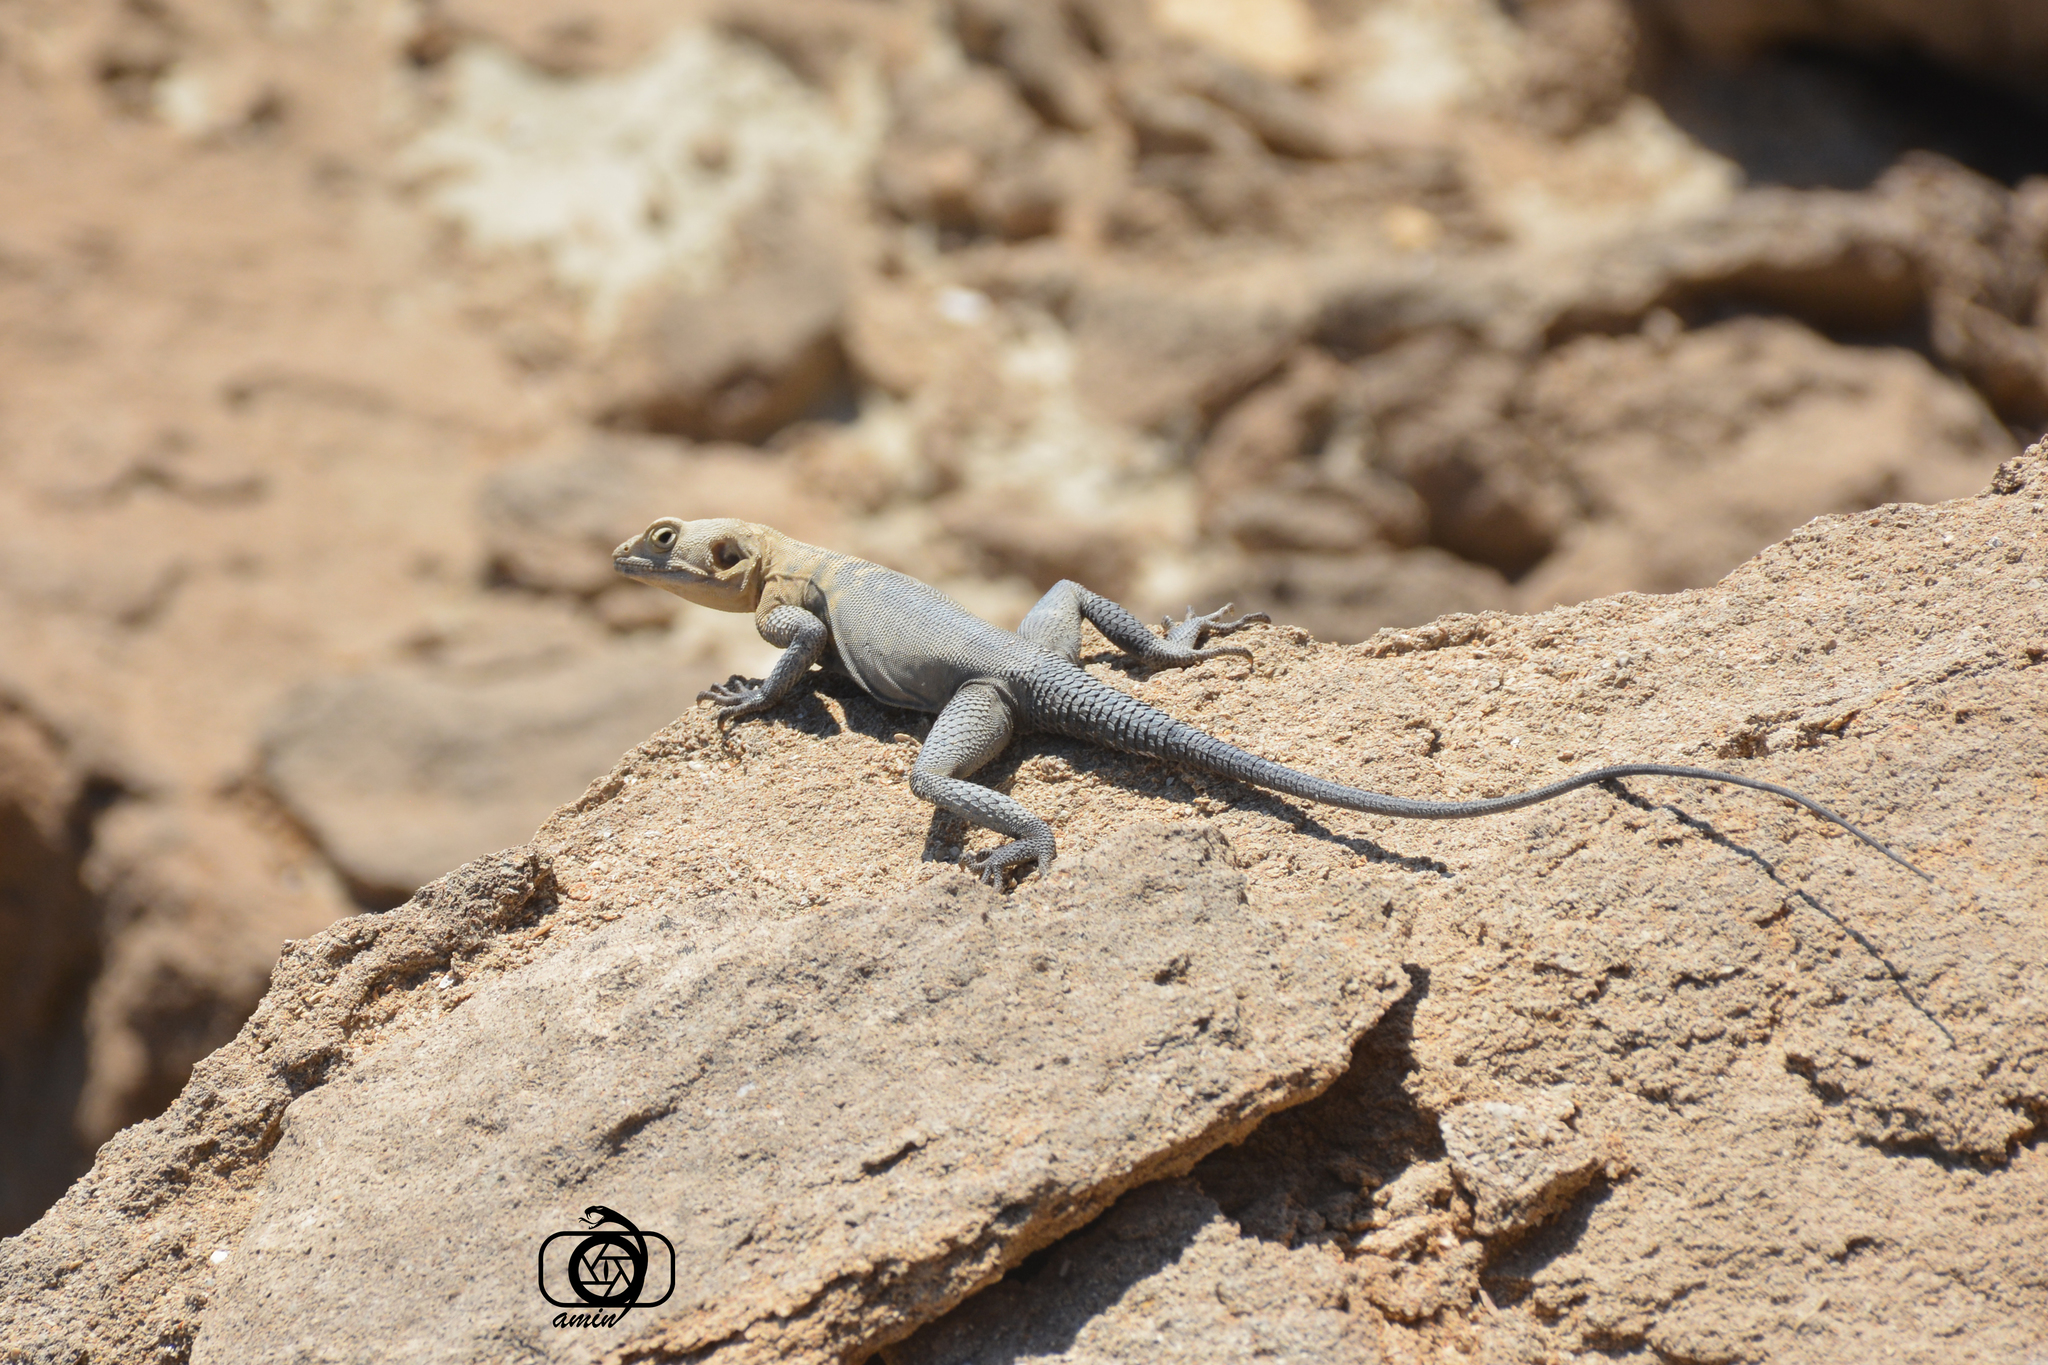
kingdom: Animalia
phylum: Chordata
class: Squamata
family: Agamidae
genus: Laudakia
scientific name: Laudakia nupta
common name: Large-headed rock agama
